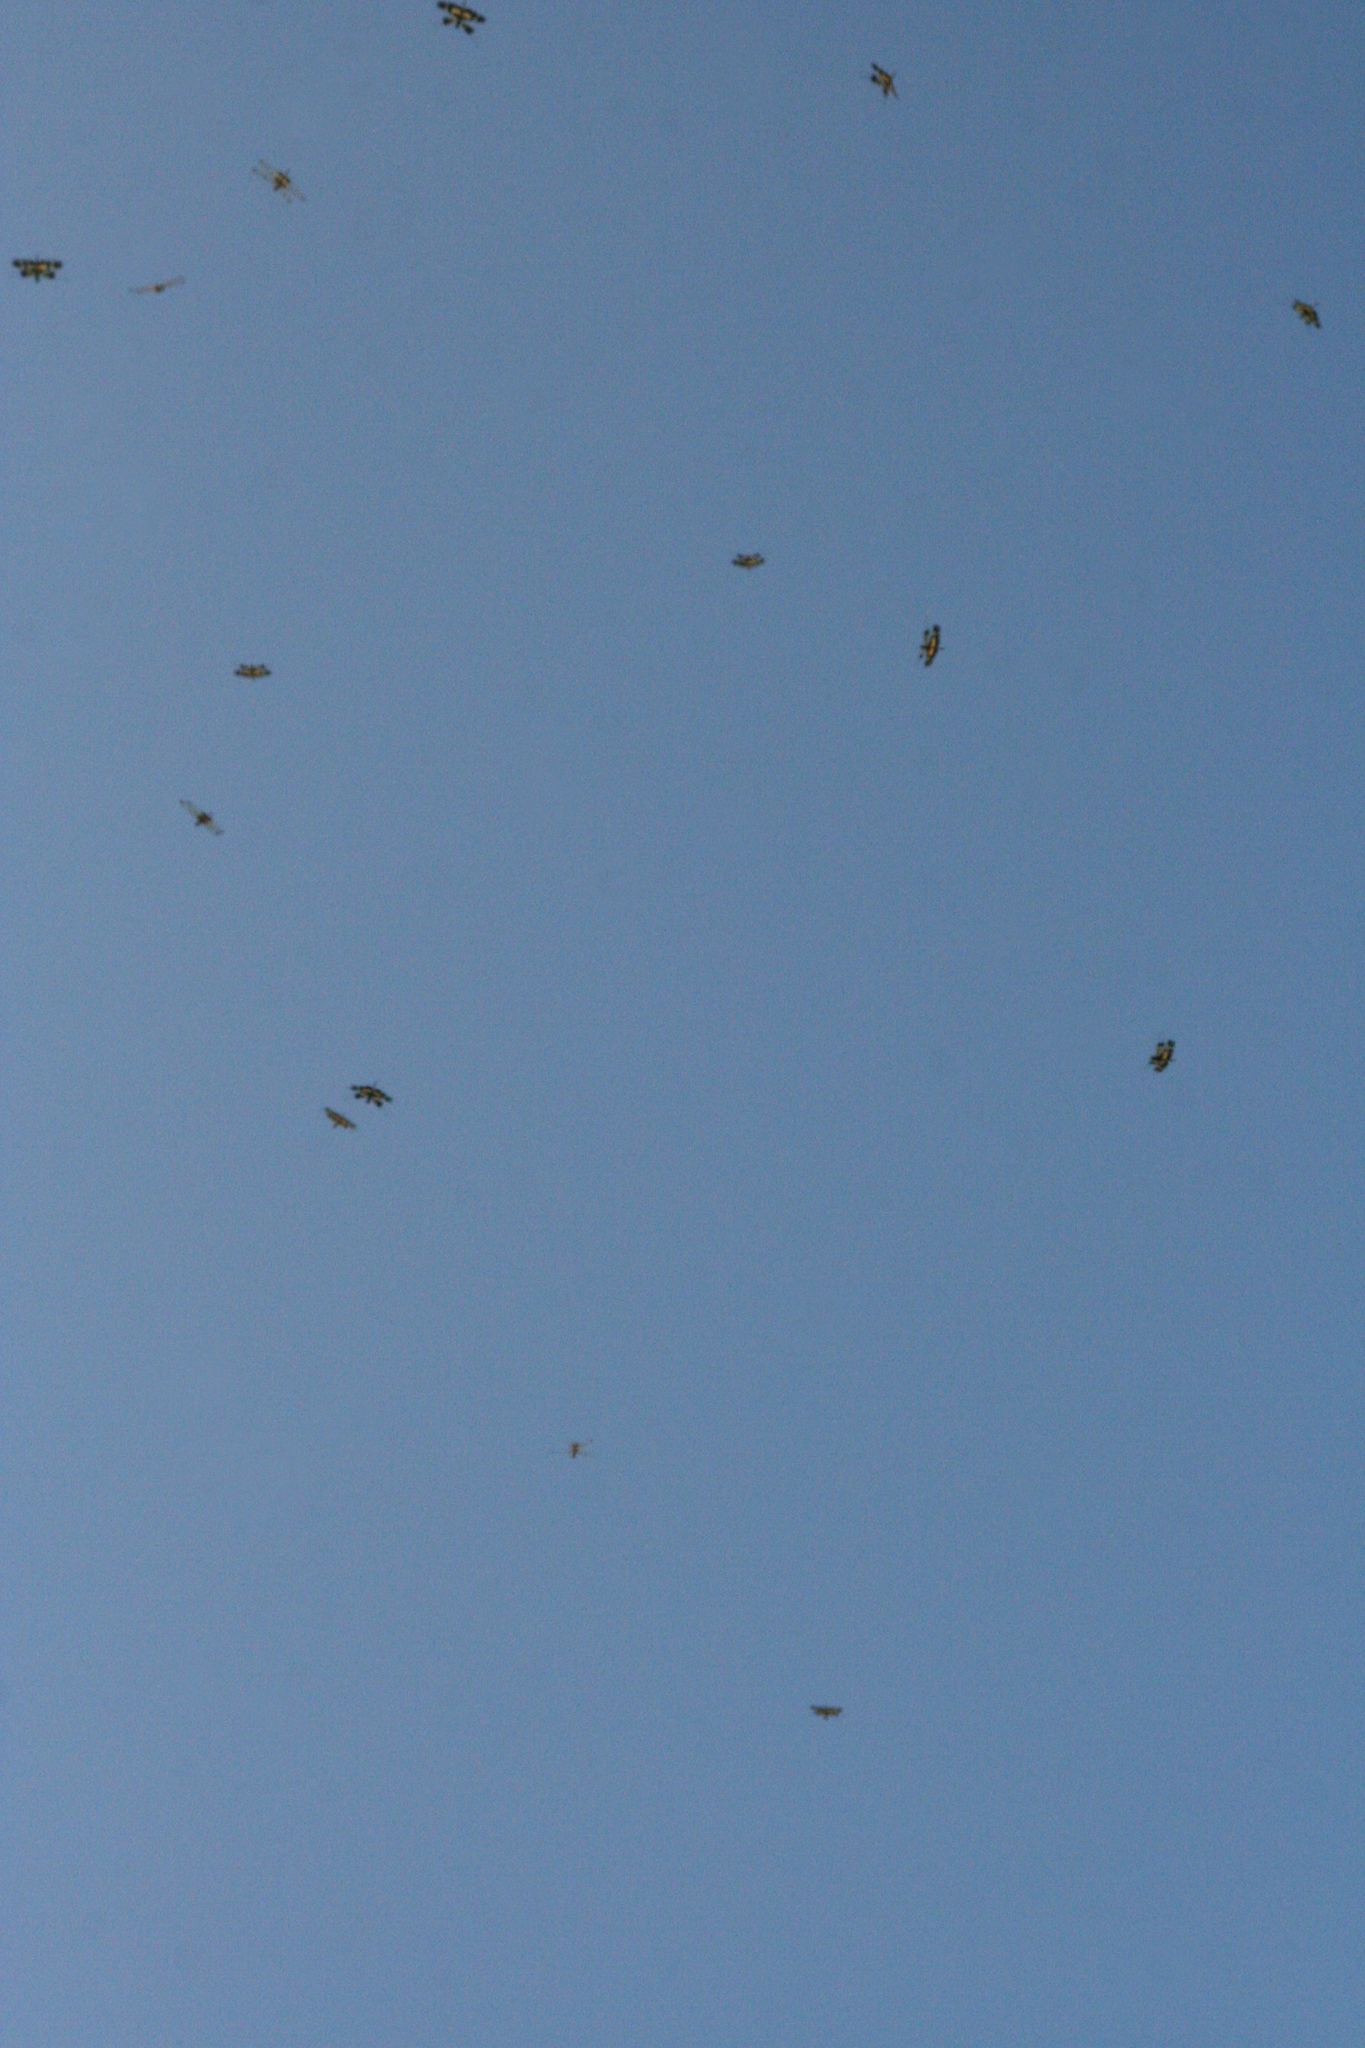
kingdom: Animalia
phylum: Arthropoda
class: Insecta
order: Odonata
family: Libellulidae
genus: Rhyothemis
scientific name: Rhyothemis phyllis
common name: Yellow-barred flutterer
